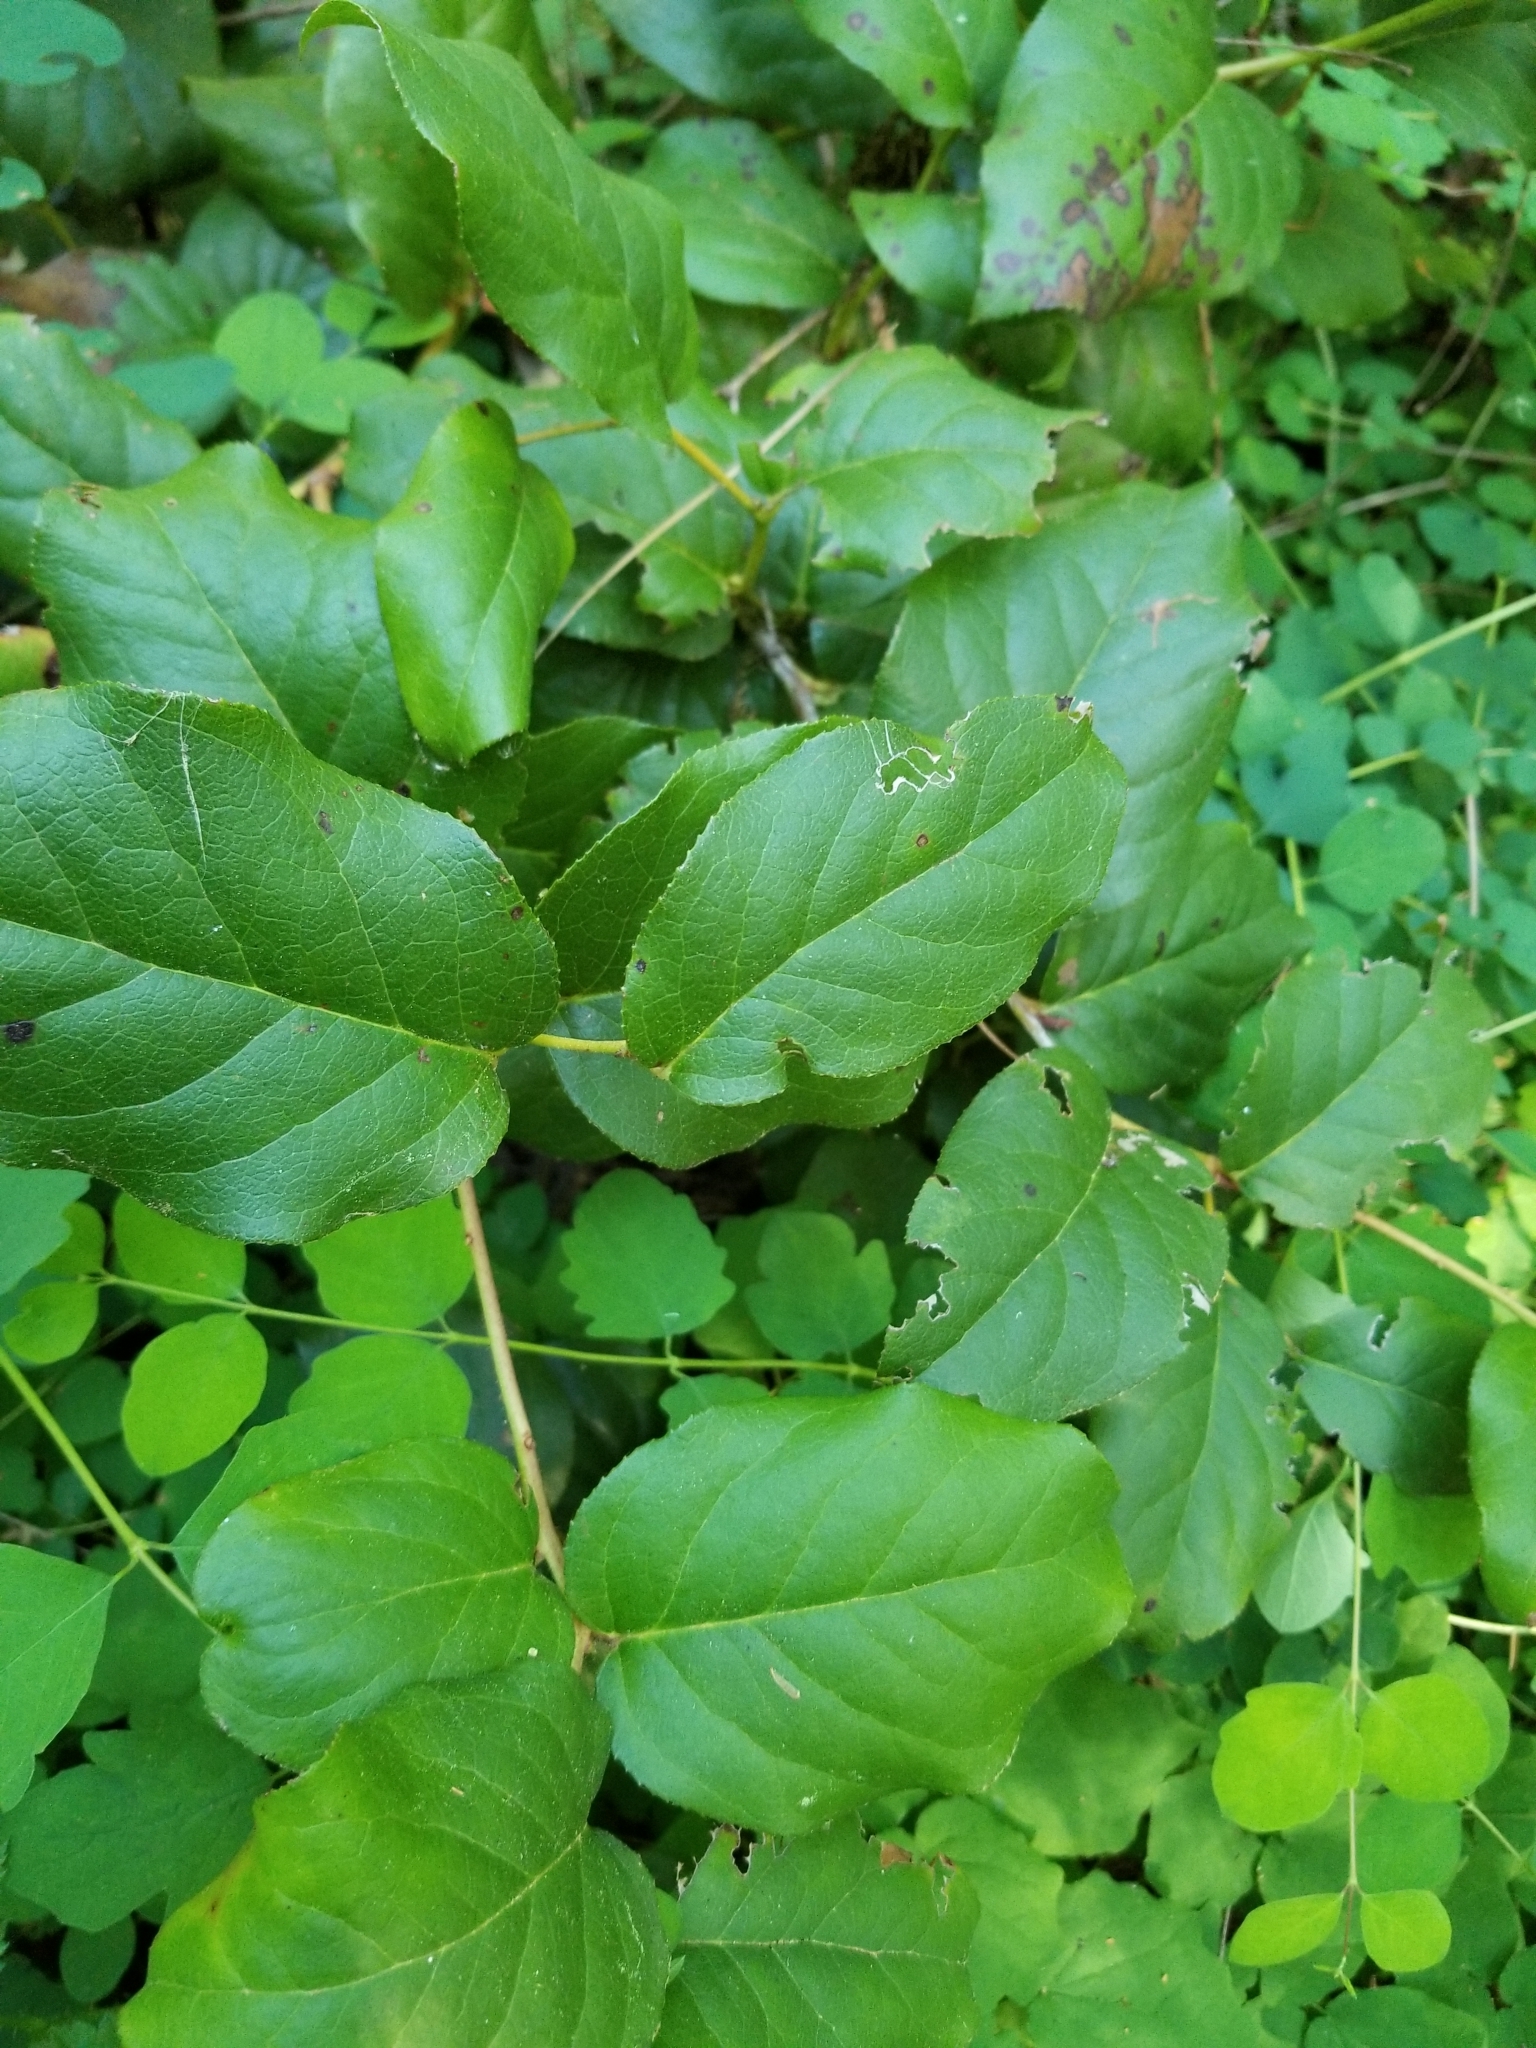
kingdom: Plantae
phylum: Tracheophyta
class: Magnoliopsida
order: Ericales
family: Ericaceae
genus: Gaultheria
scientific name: Gaultheria shallon
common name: Shallon
